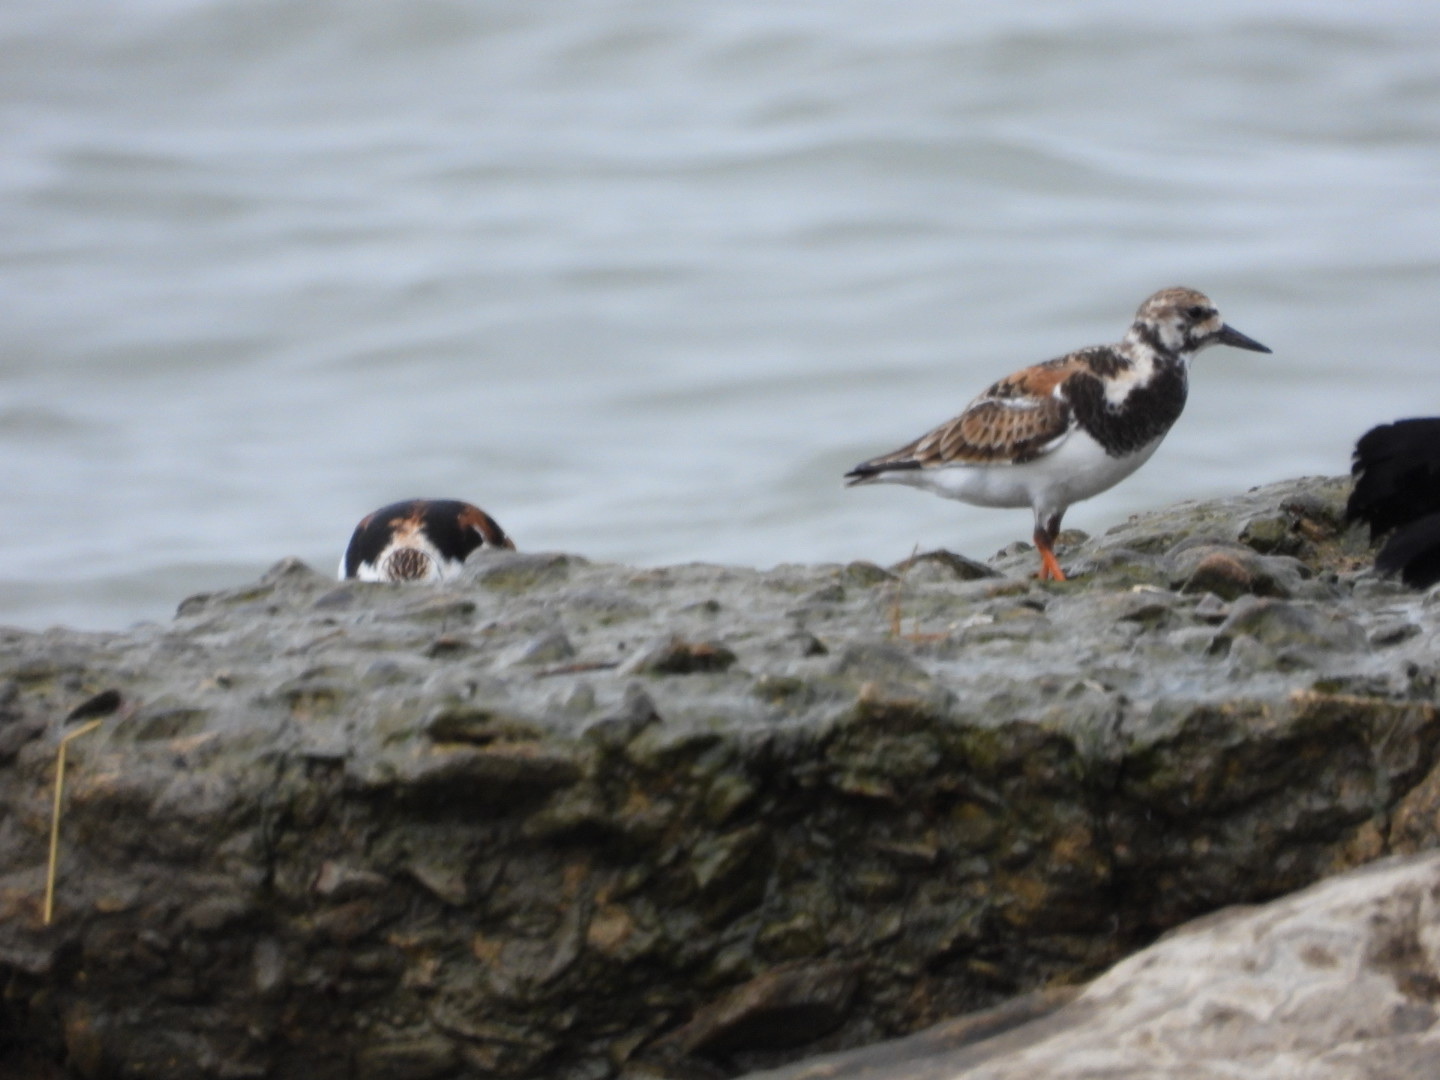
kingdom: Animalia
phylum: Chordata
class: Aves
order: Charadriiformes
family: Scolopacidae
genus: Arenaria
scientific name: Arenaria interpres
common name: Ruddy turnstone
